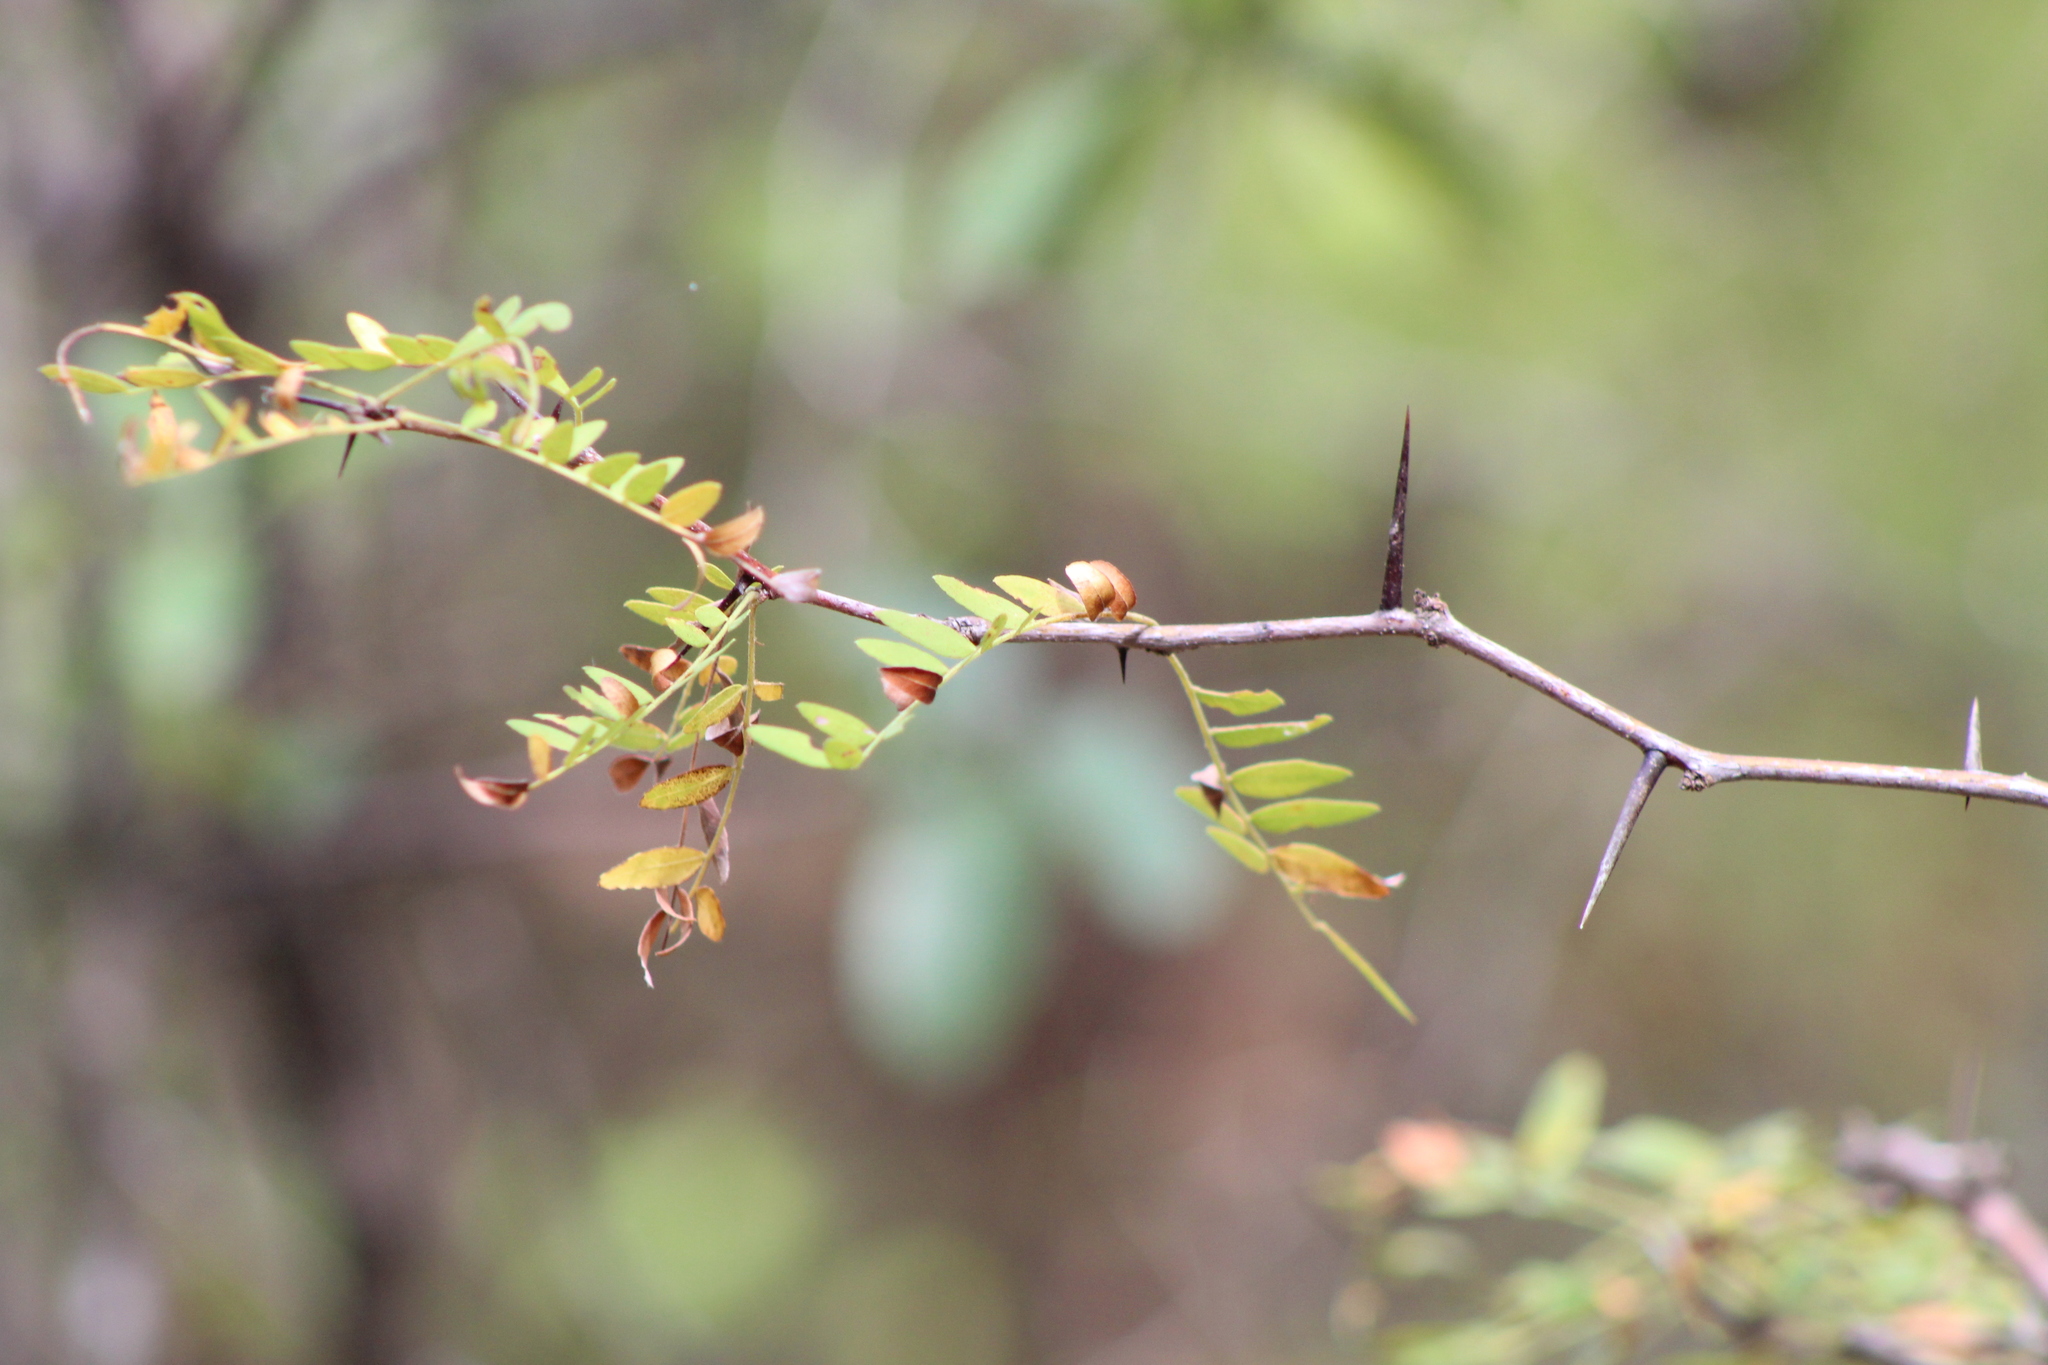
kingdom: Plantae
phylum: Tracheophyta
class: Magnoliopsida
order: Fabales
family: Fabaceae
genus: Gleditsia
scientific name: Gleditsia triacanthos
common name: Common honeylocust
